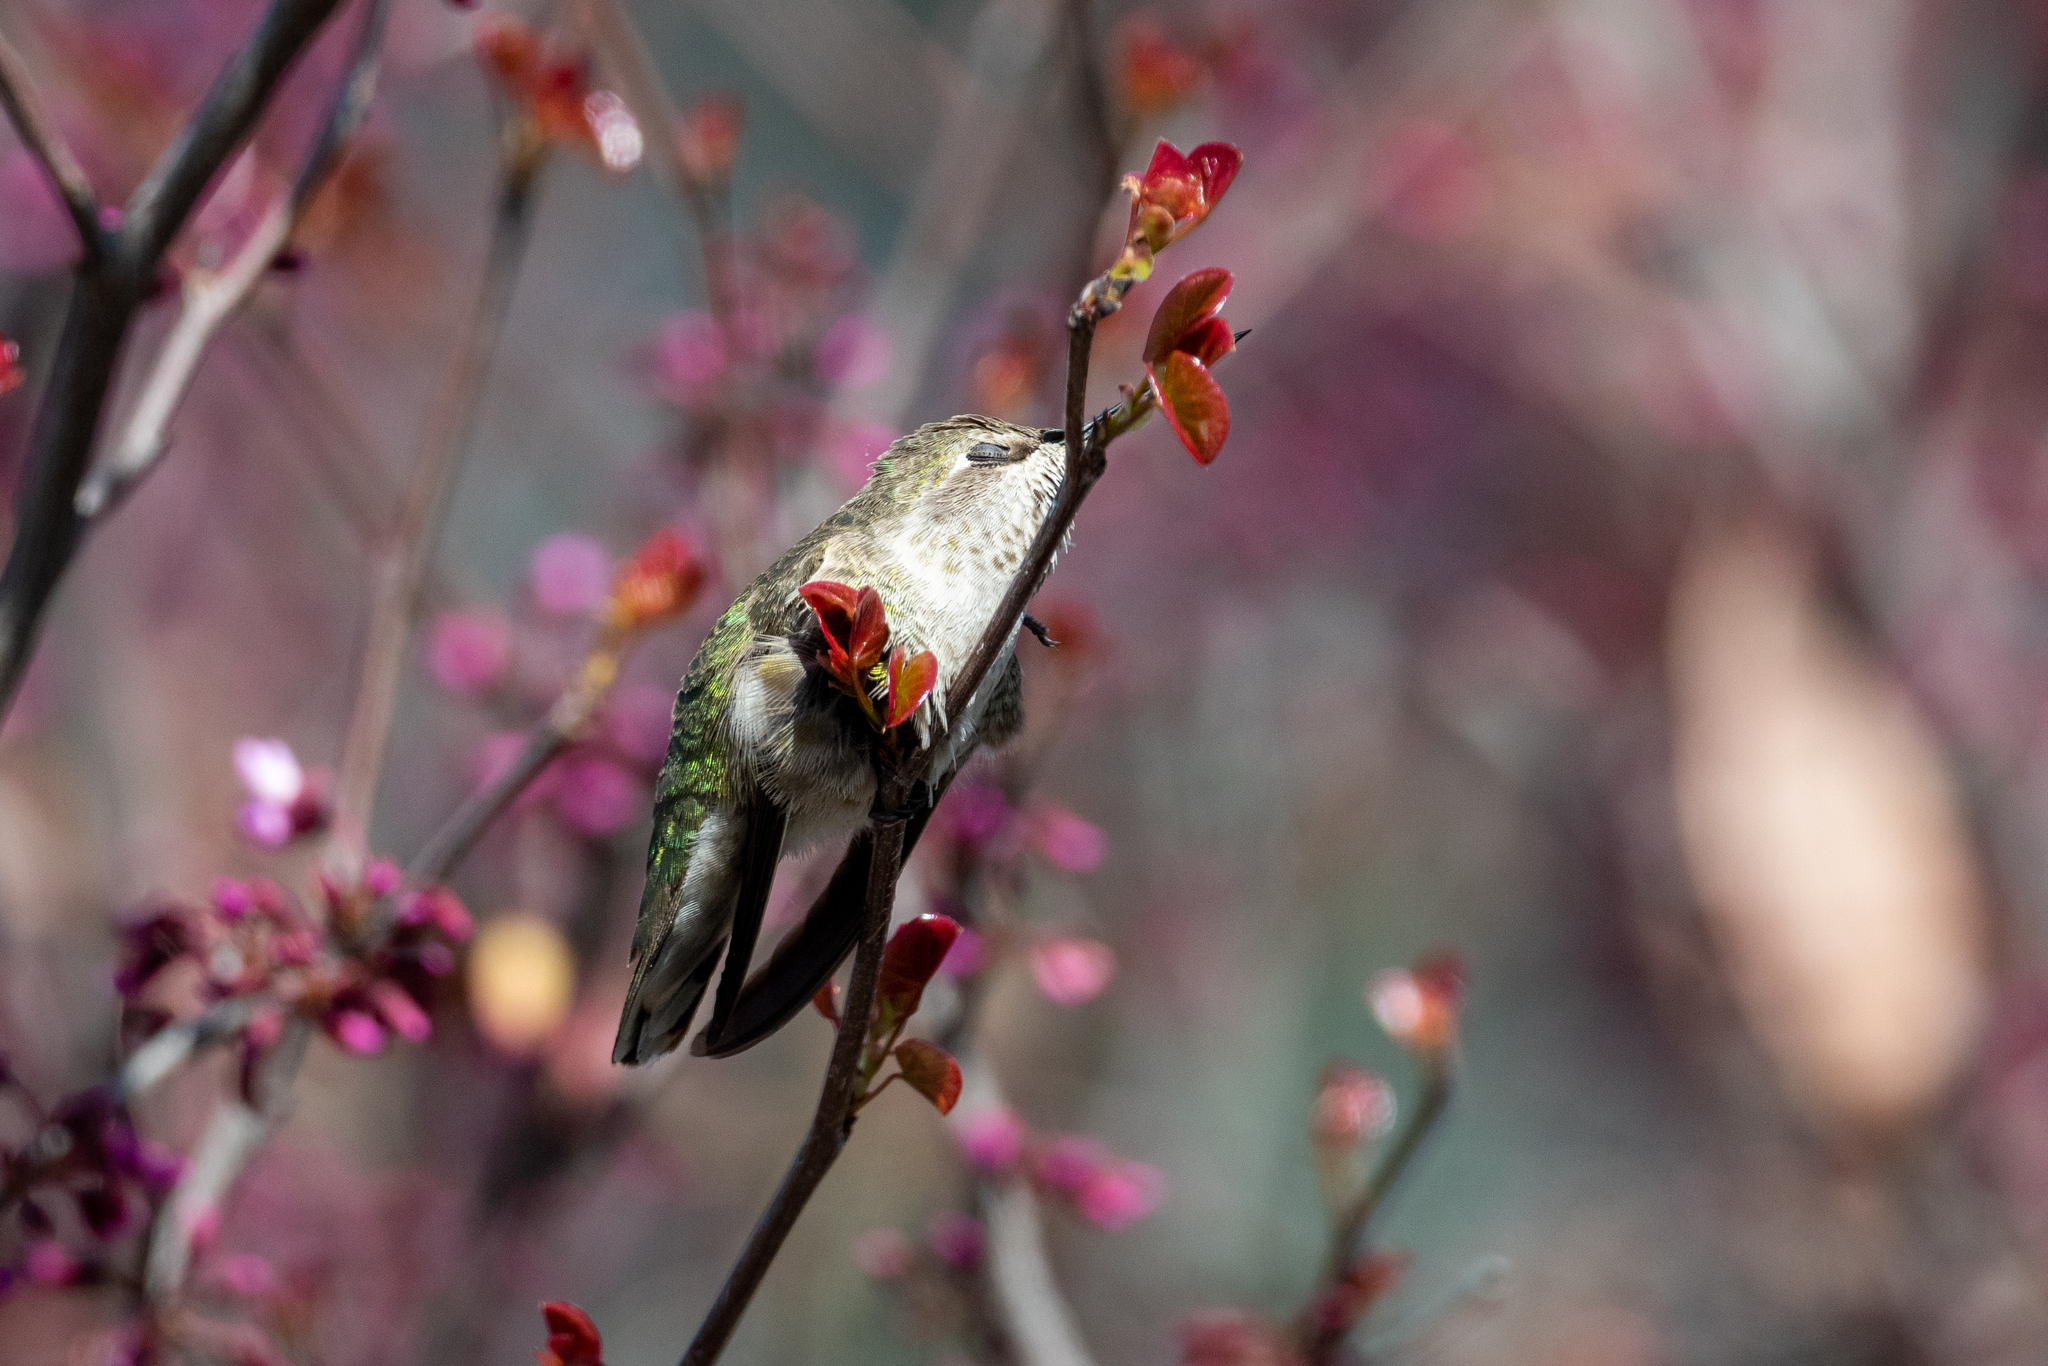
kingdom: Animalia
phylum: Chordata
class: Aves
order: Apodiformes
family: Trochilidae
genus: Calypte
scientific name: Calypte anna
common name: Anna's hummingbird
